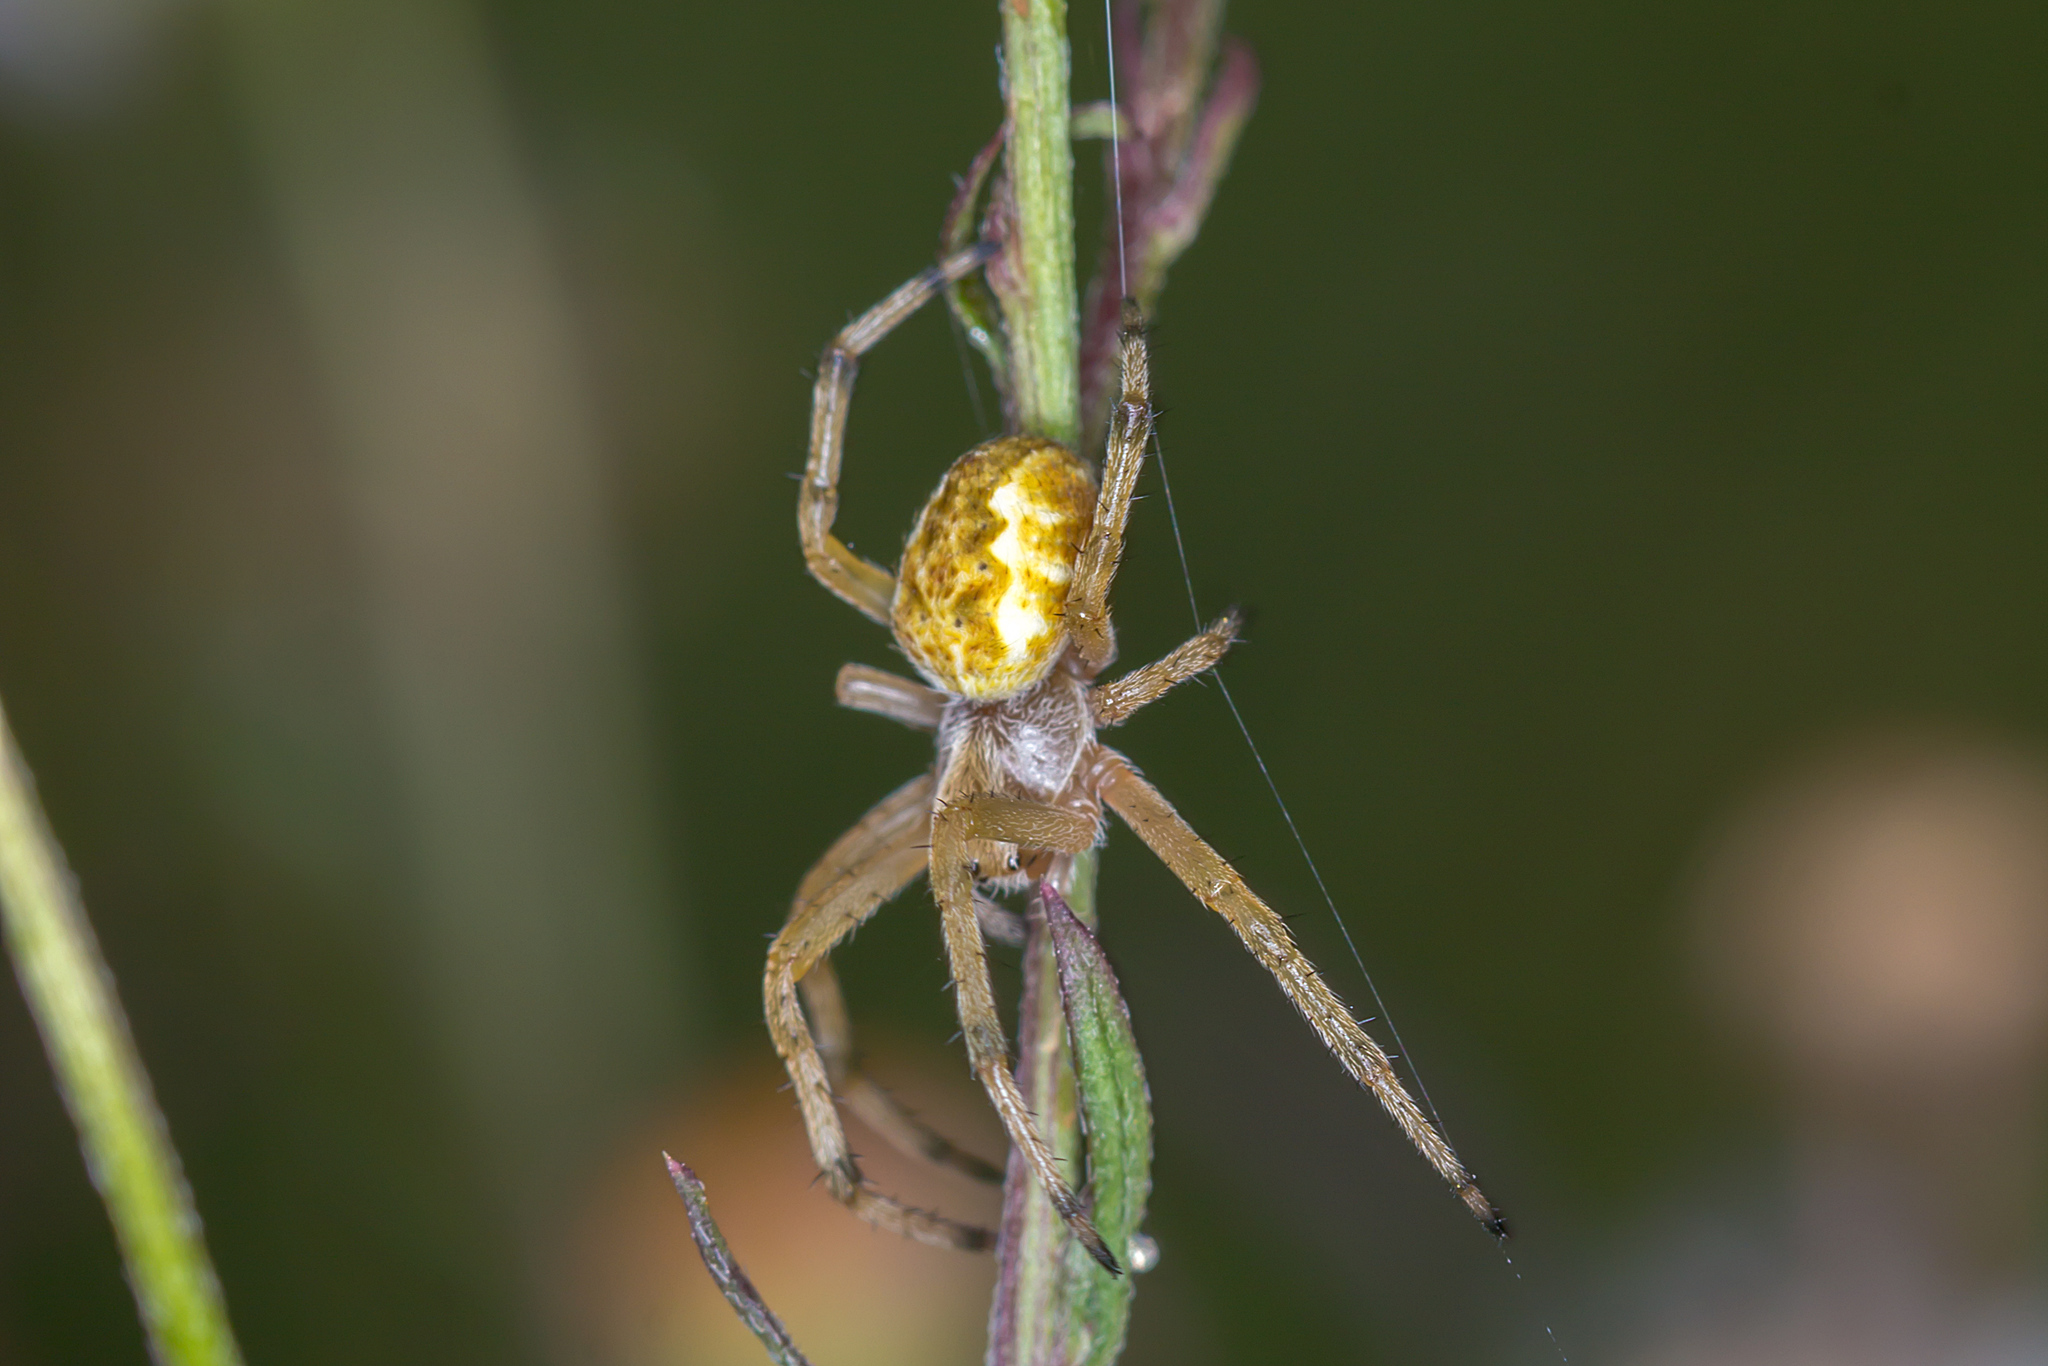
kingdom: Animalia
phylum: Arthropoda
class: Arachnida
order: Araneae
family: Araneidae
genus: Salsa
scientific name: Salsa fuliginata
